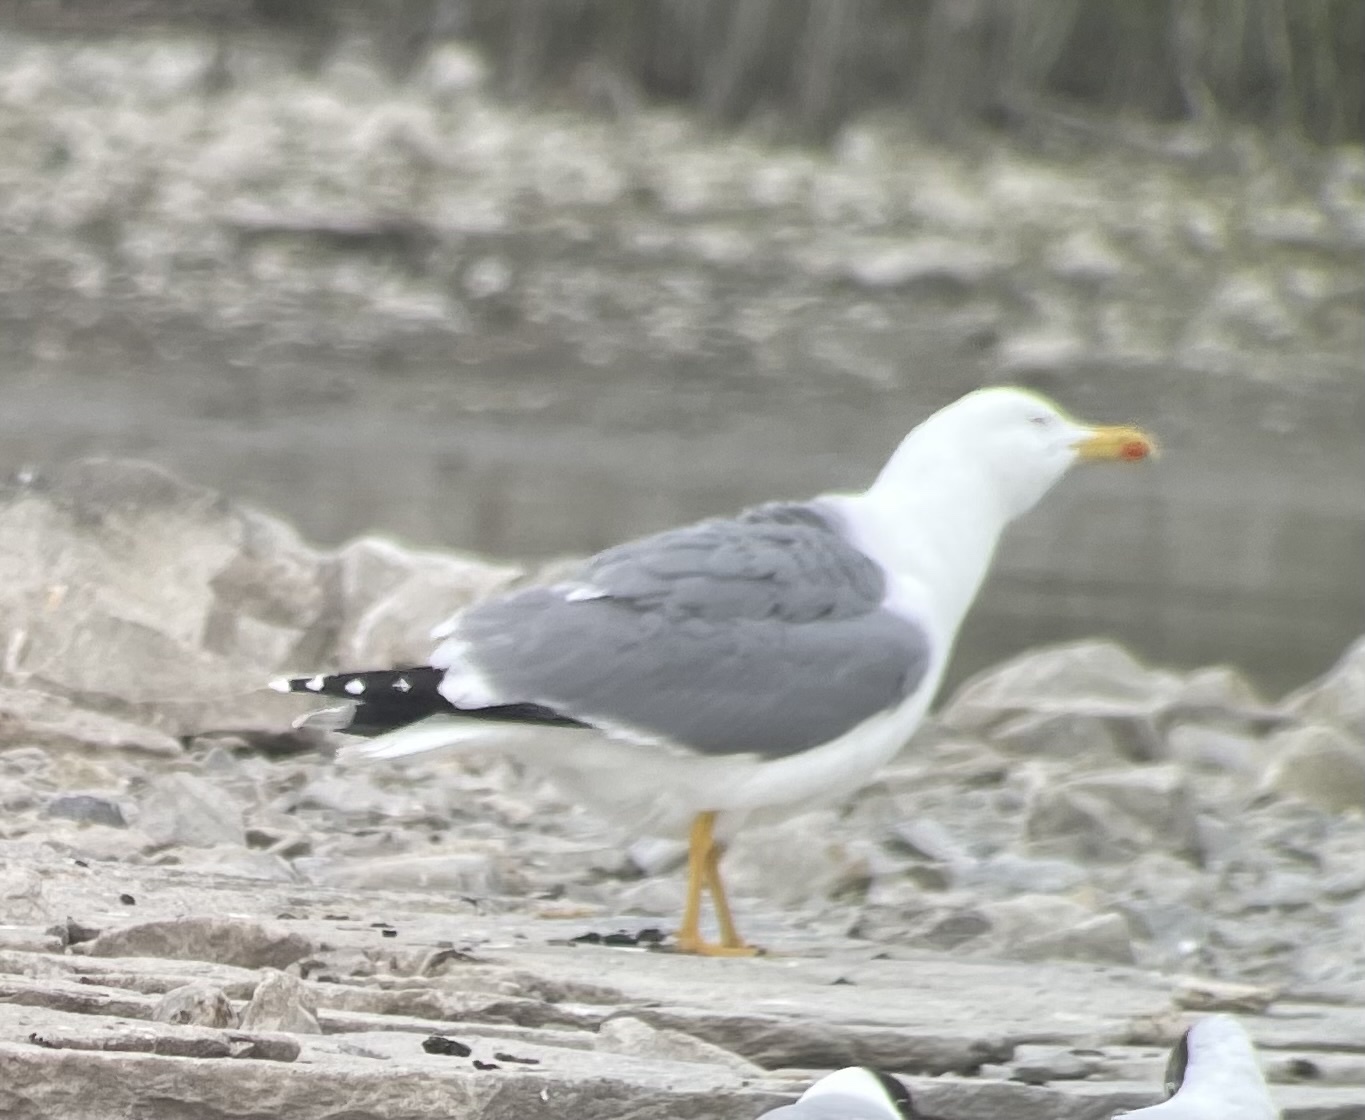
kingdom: Animalia
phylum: Chordata
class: Aves
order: Charadriiformes
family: Laridae
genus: Larus
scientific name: Larus michahellis
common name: Yellow-legged gull
